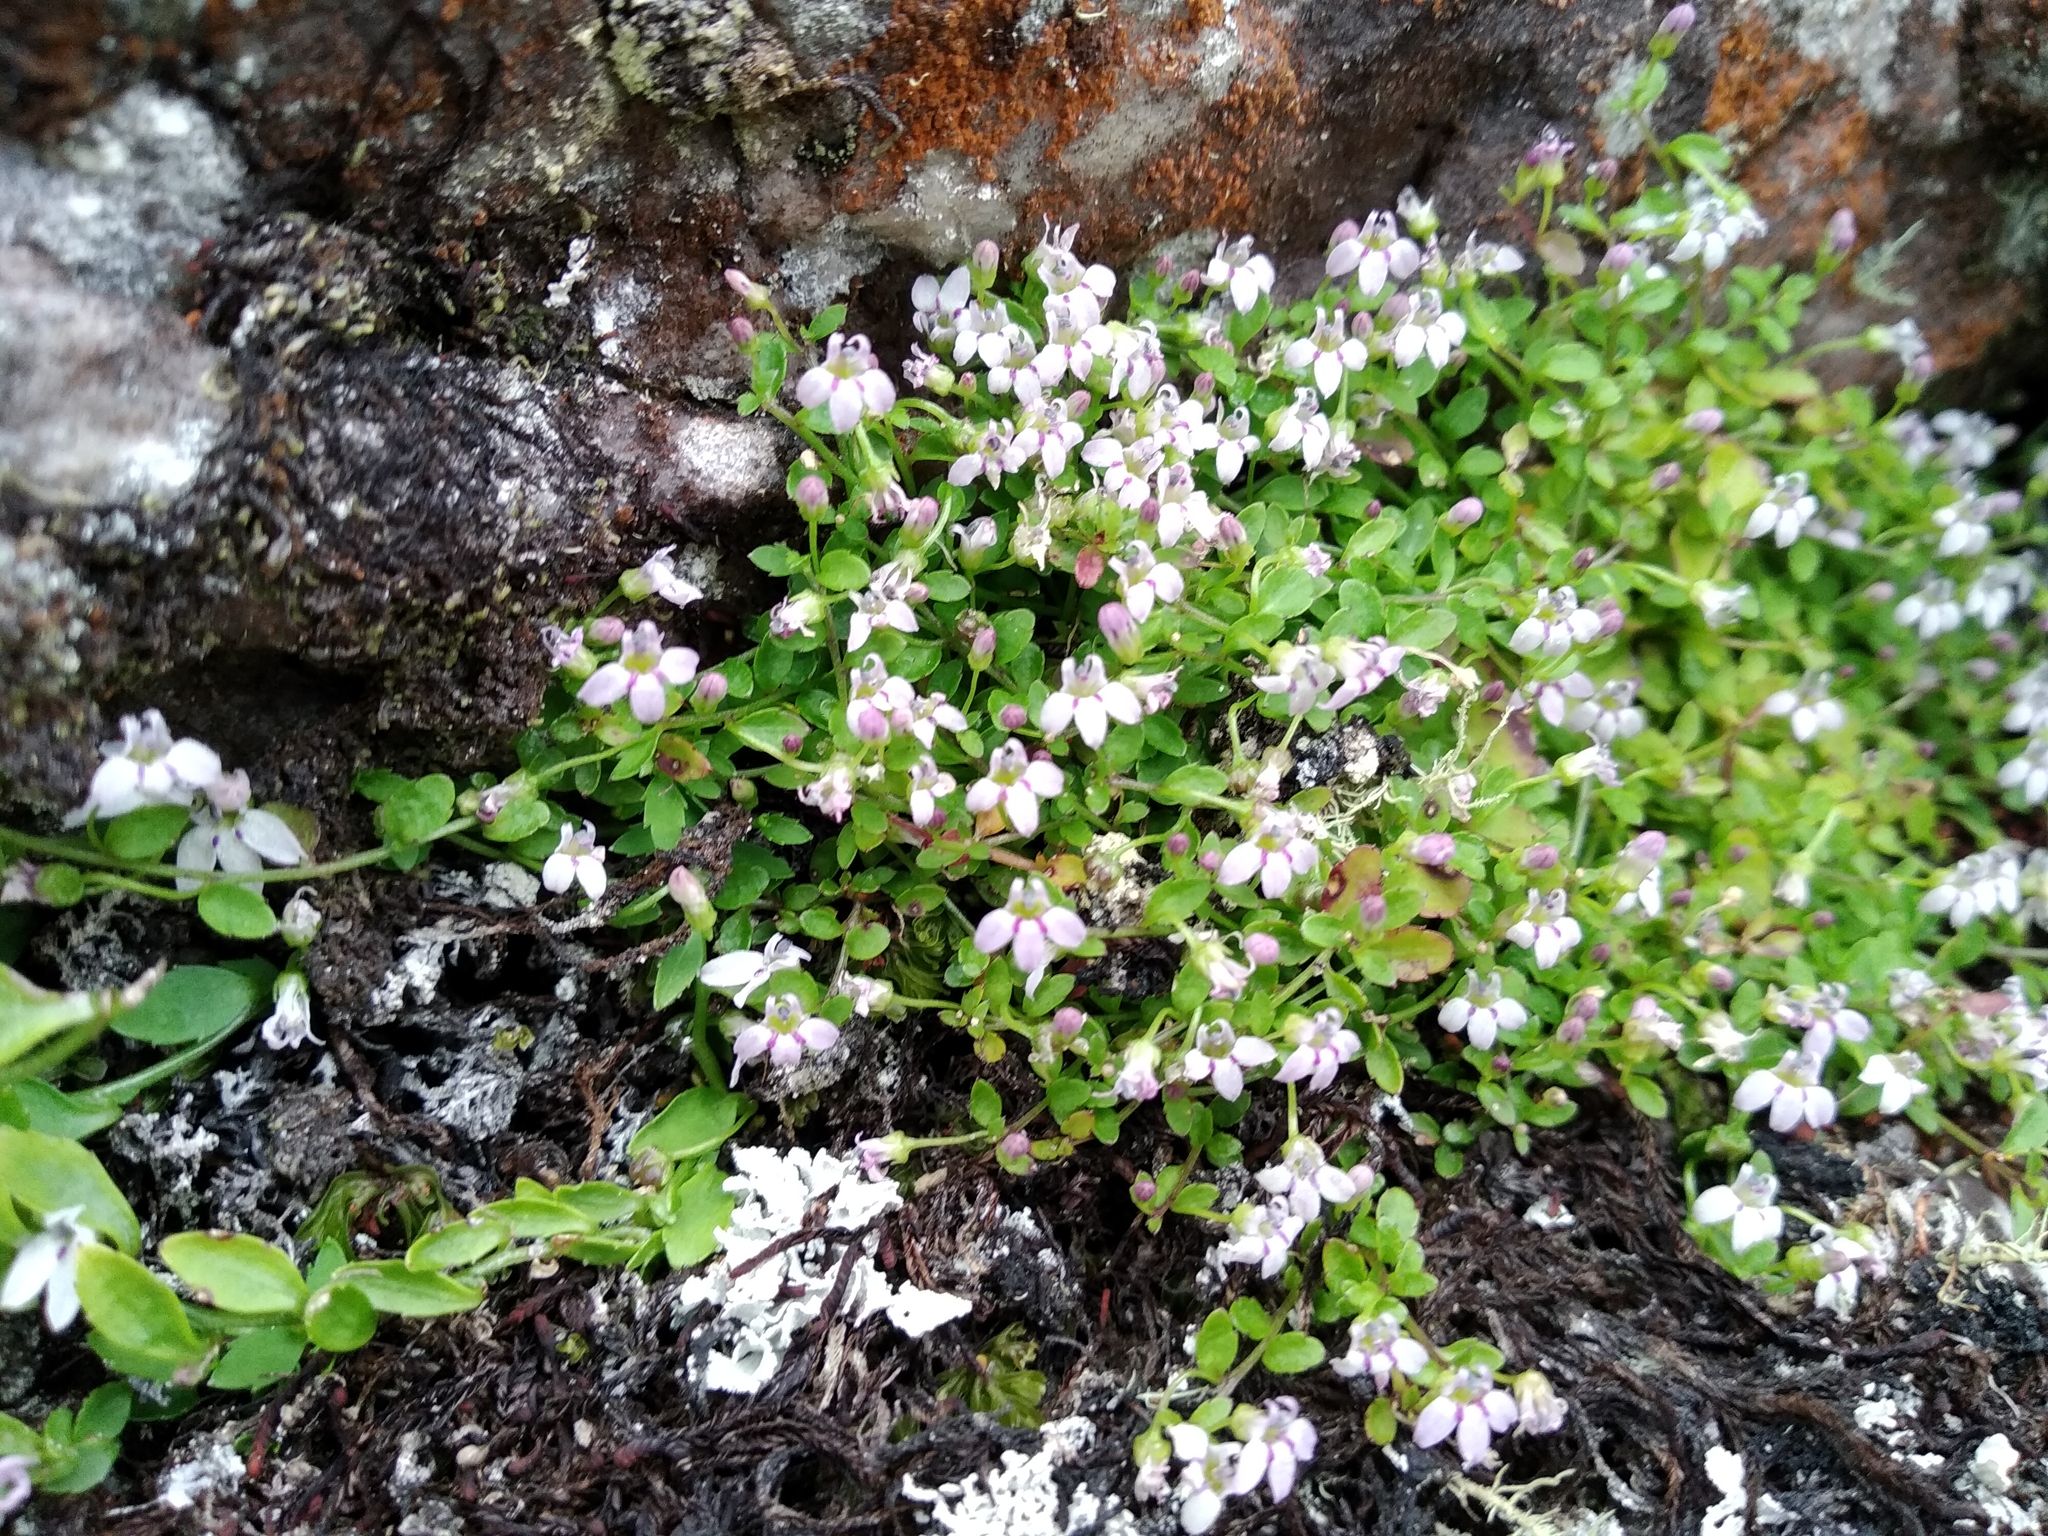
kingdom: Plantae
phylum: Tracheophyta
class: Magnoliopsida
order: Asterales
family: Campanulaceae
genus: Unigenes
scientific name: Unigenes humifusa
